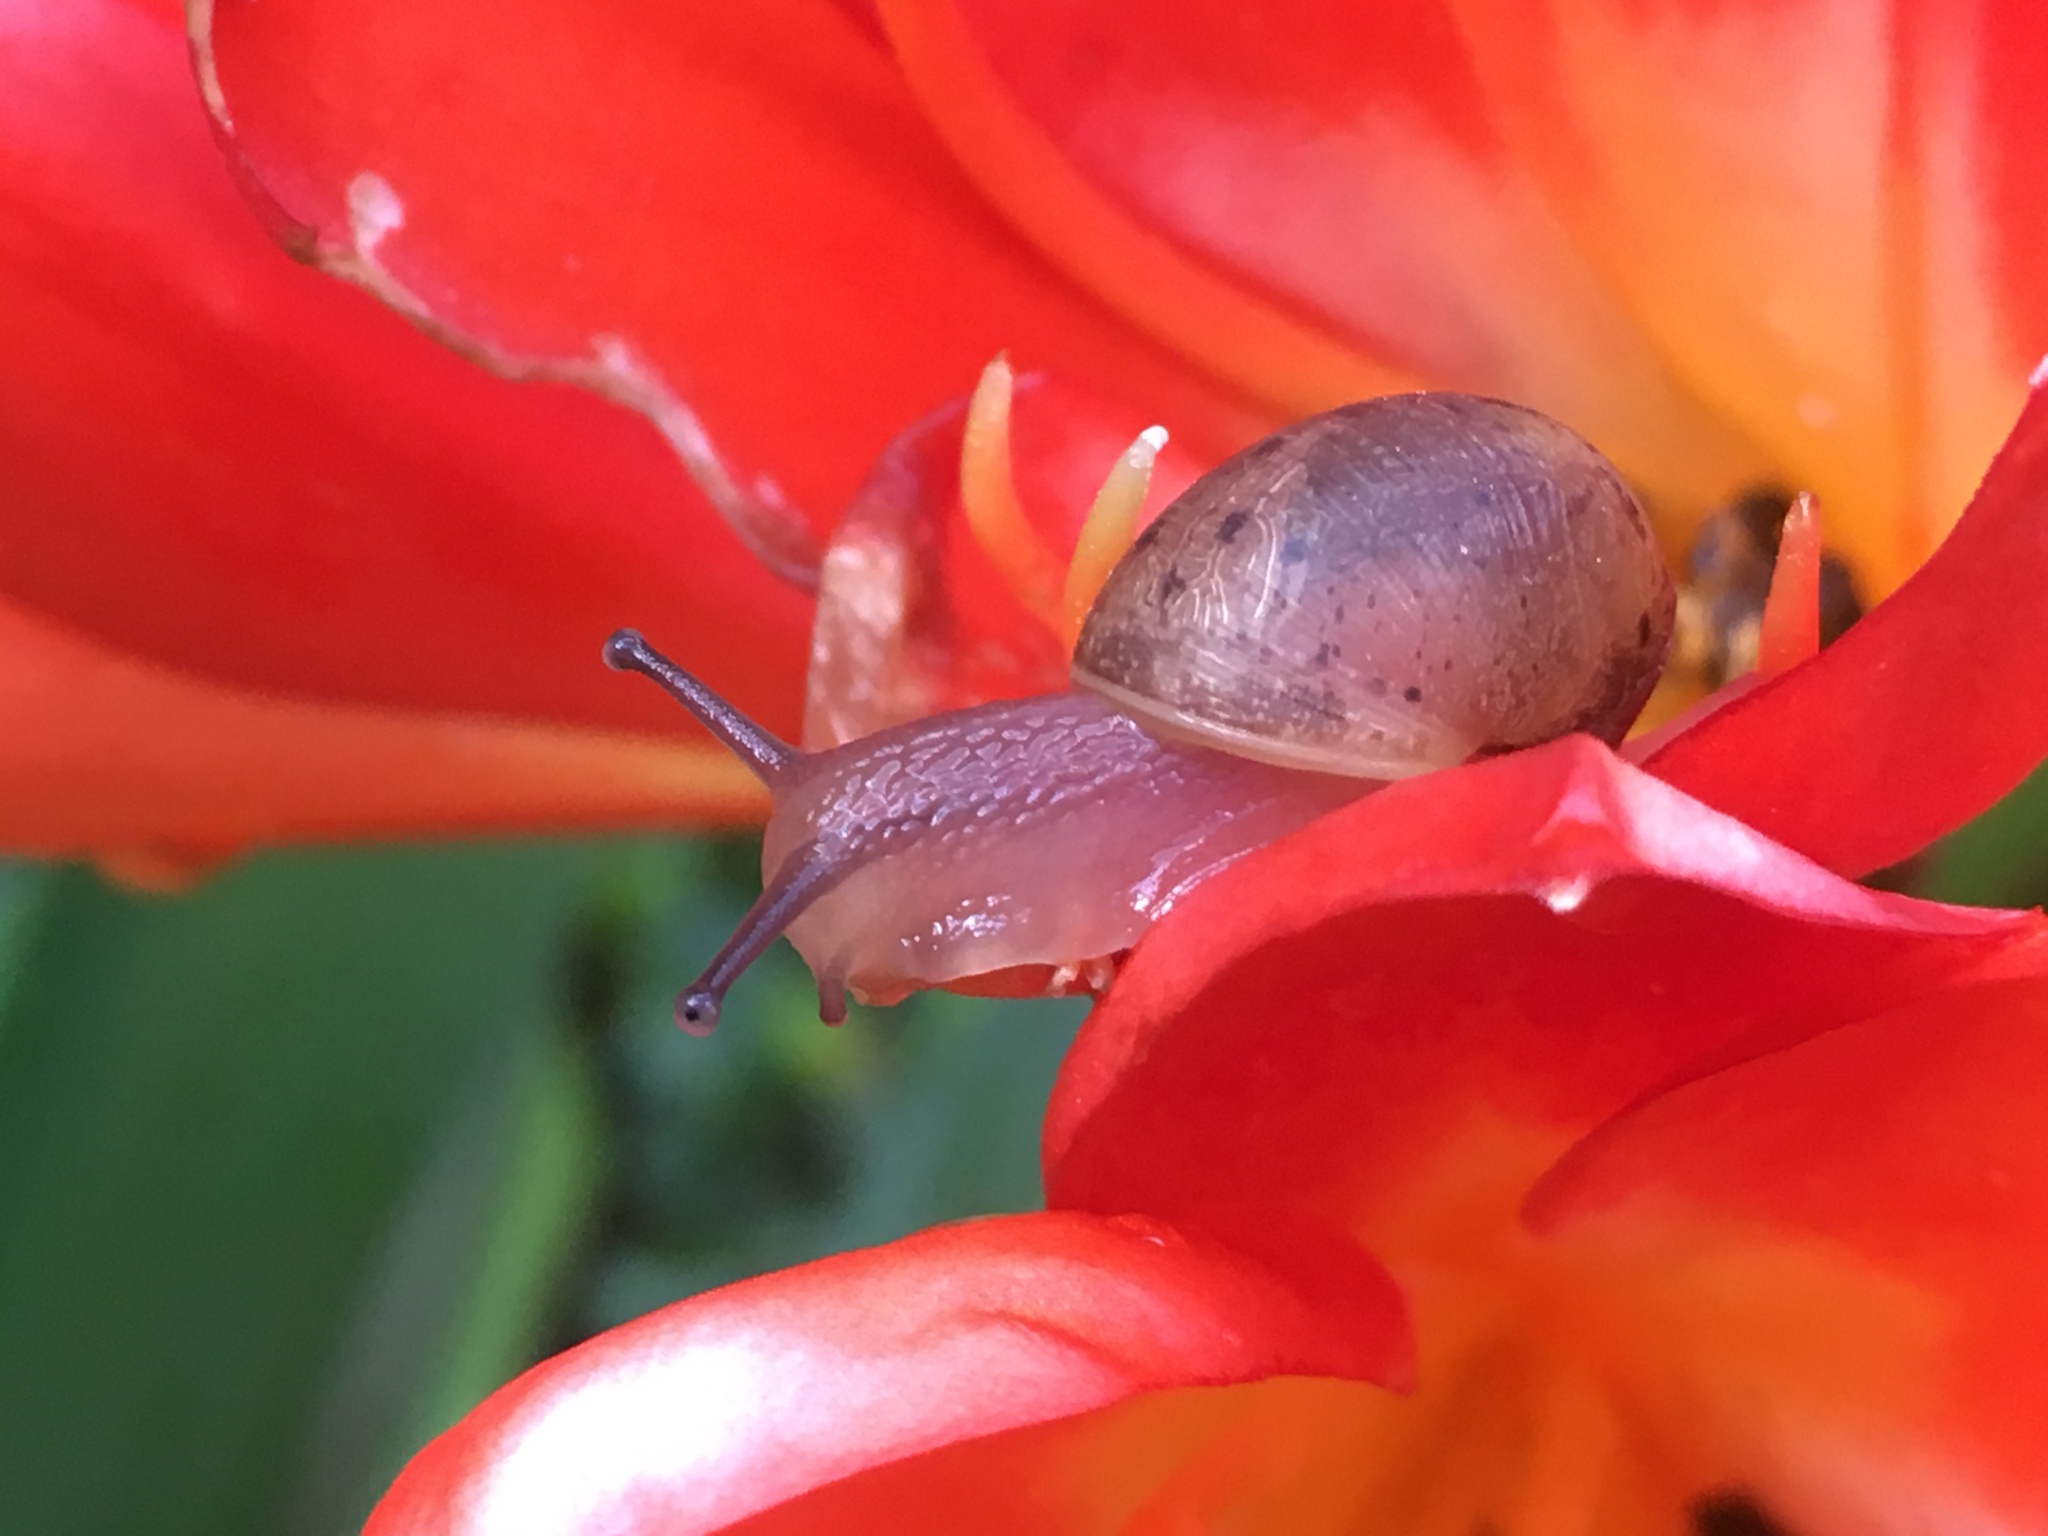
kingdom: Animalia
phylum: Mollusca
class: Gastropoda
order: Stylommatophora
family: Helicidae
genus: Cornu
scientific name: Cornu aspersum
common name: Brown garden snail
